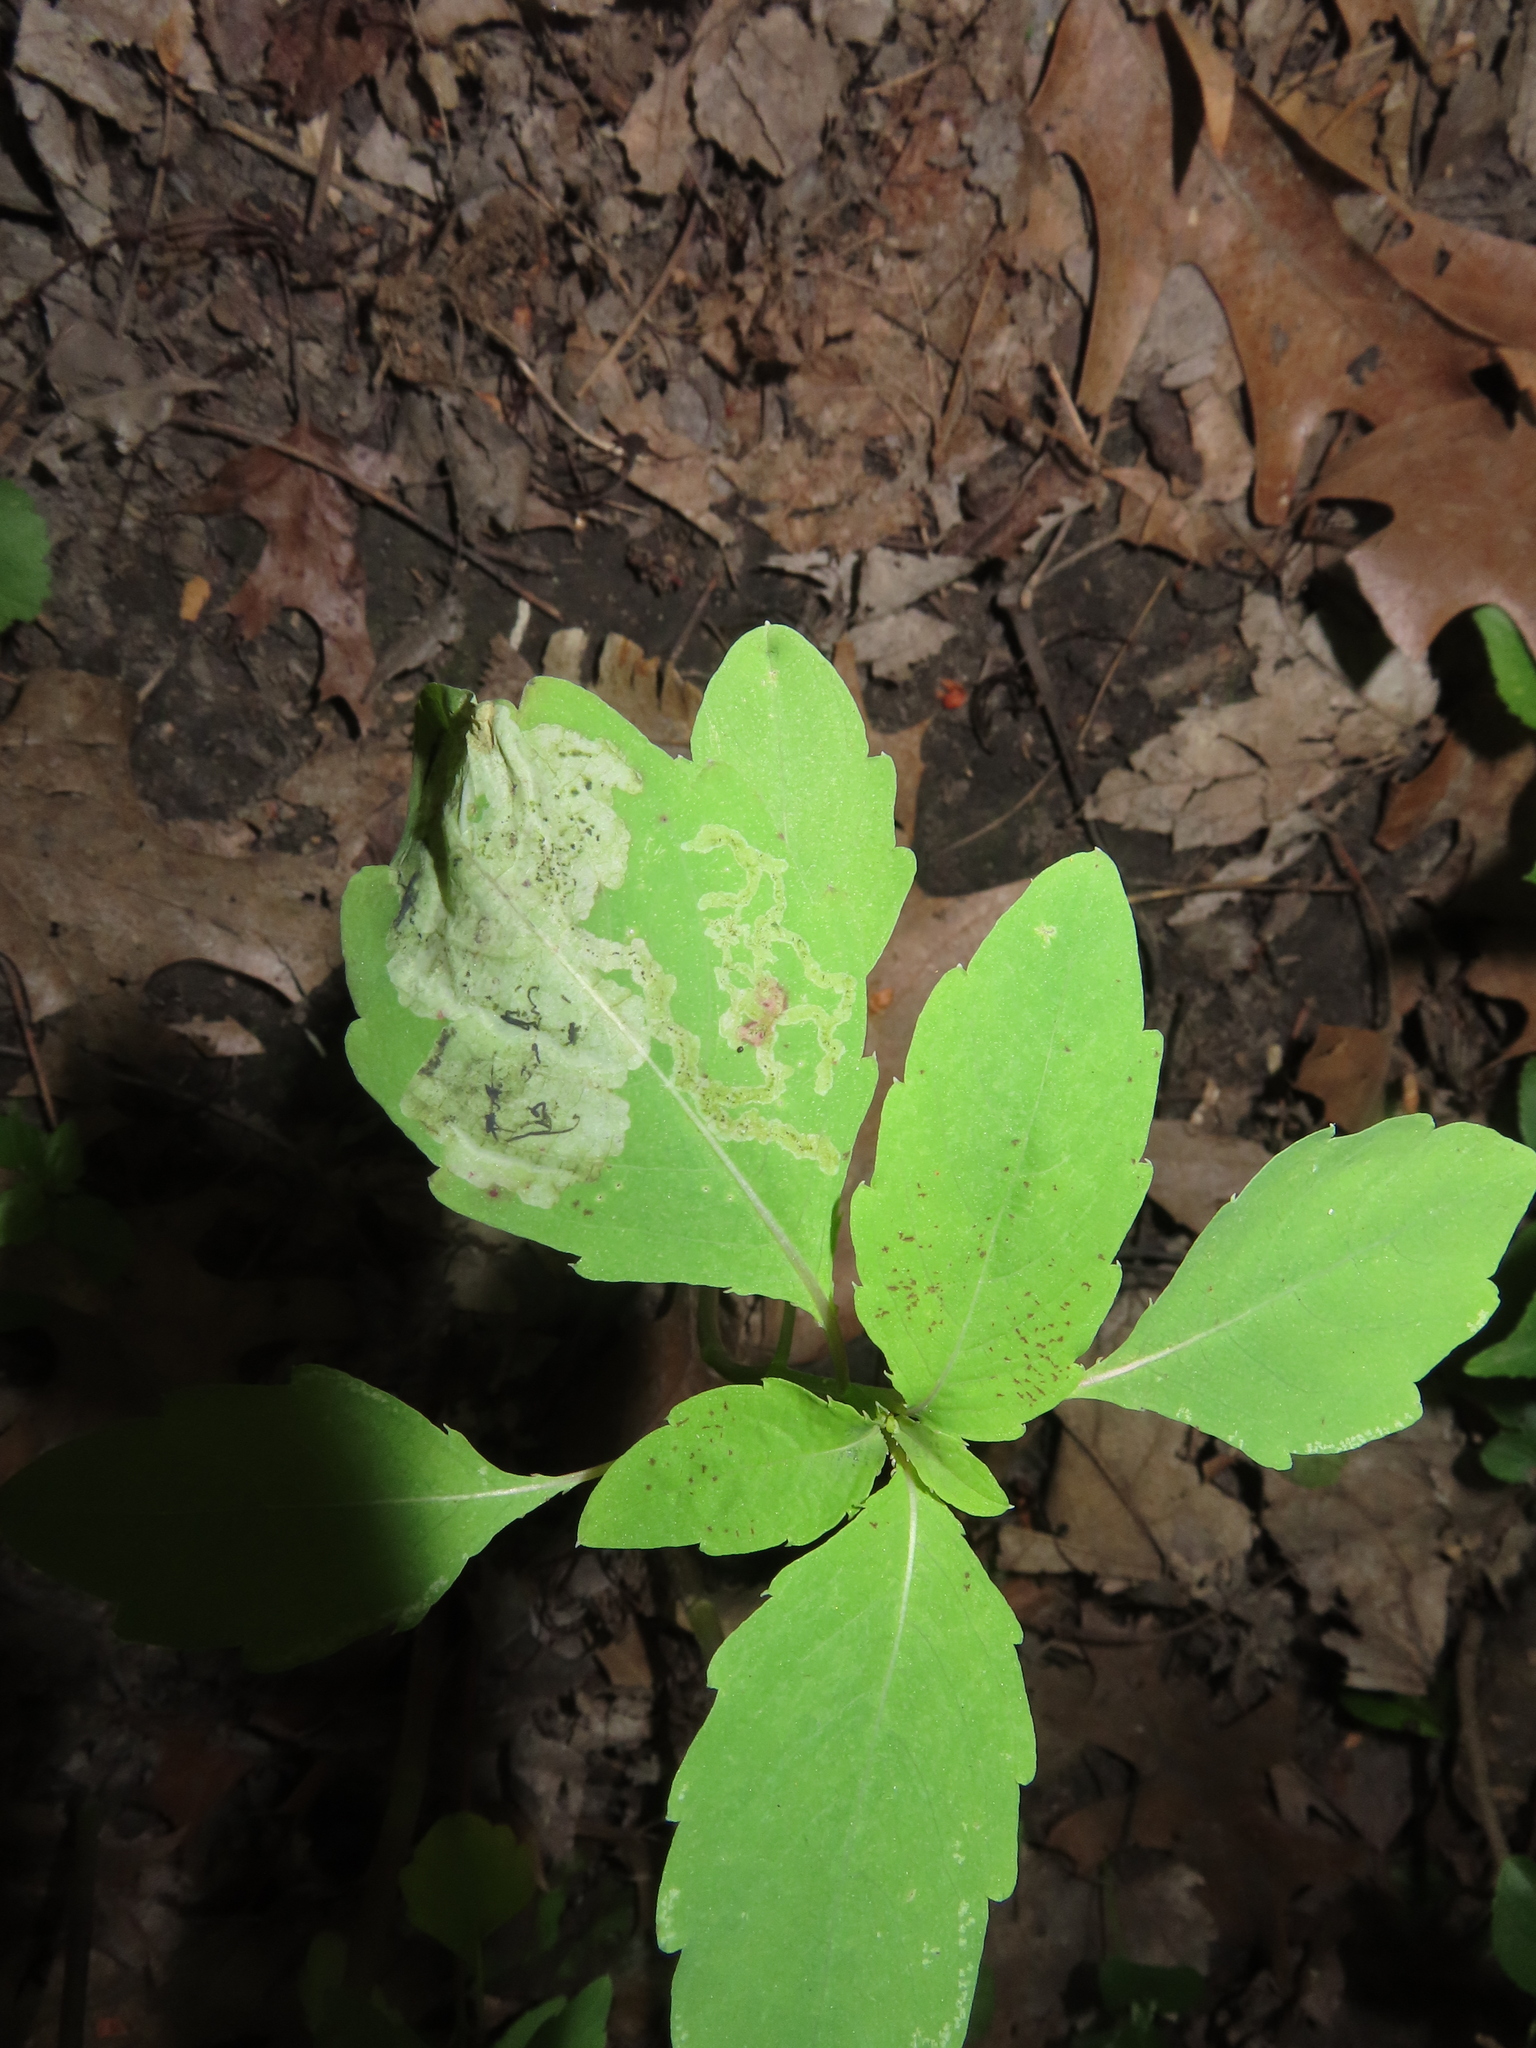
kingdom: Animalia
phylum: Arthropoda
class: Insecta
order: Diptera
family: Agromyzidae
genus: Phytoliriomyza
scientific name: Phytoliriomyza melampyga
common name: Jewelweed leaf-miner fly
